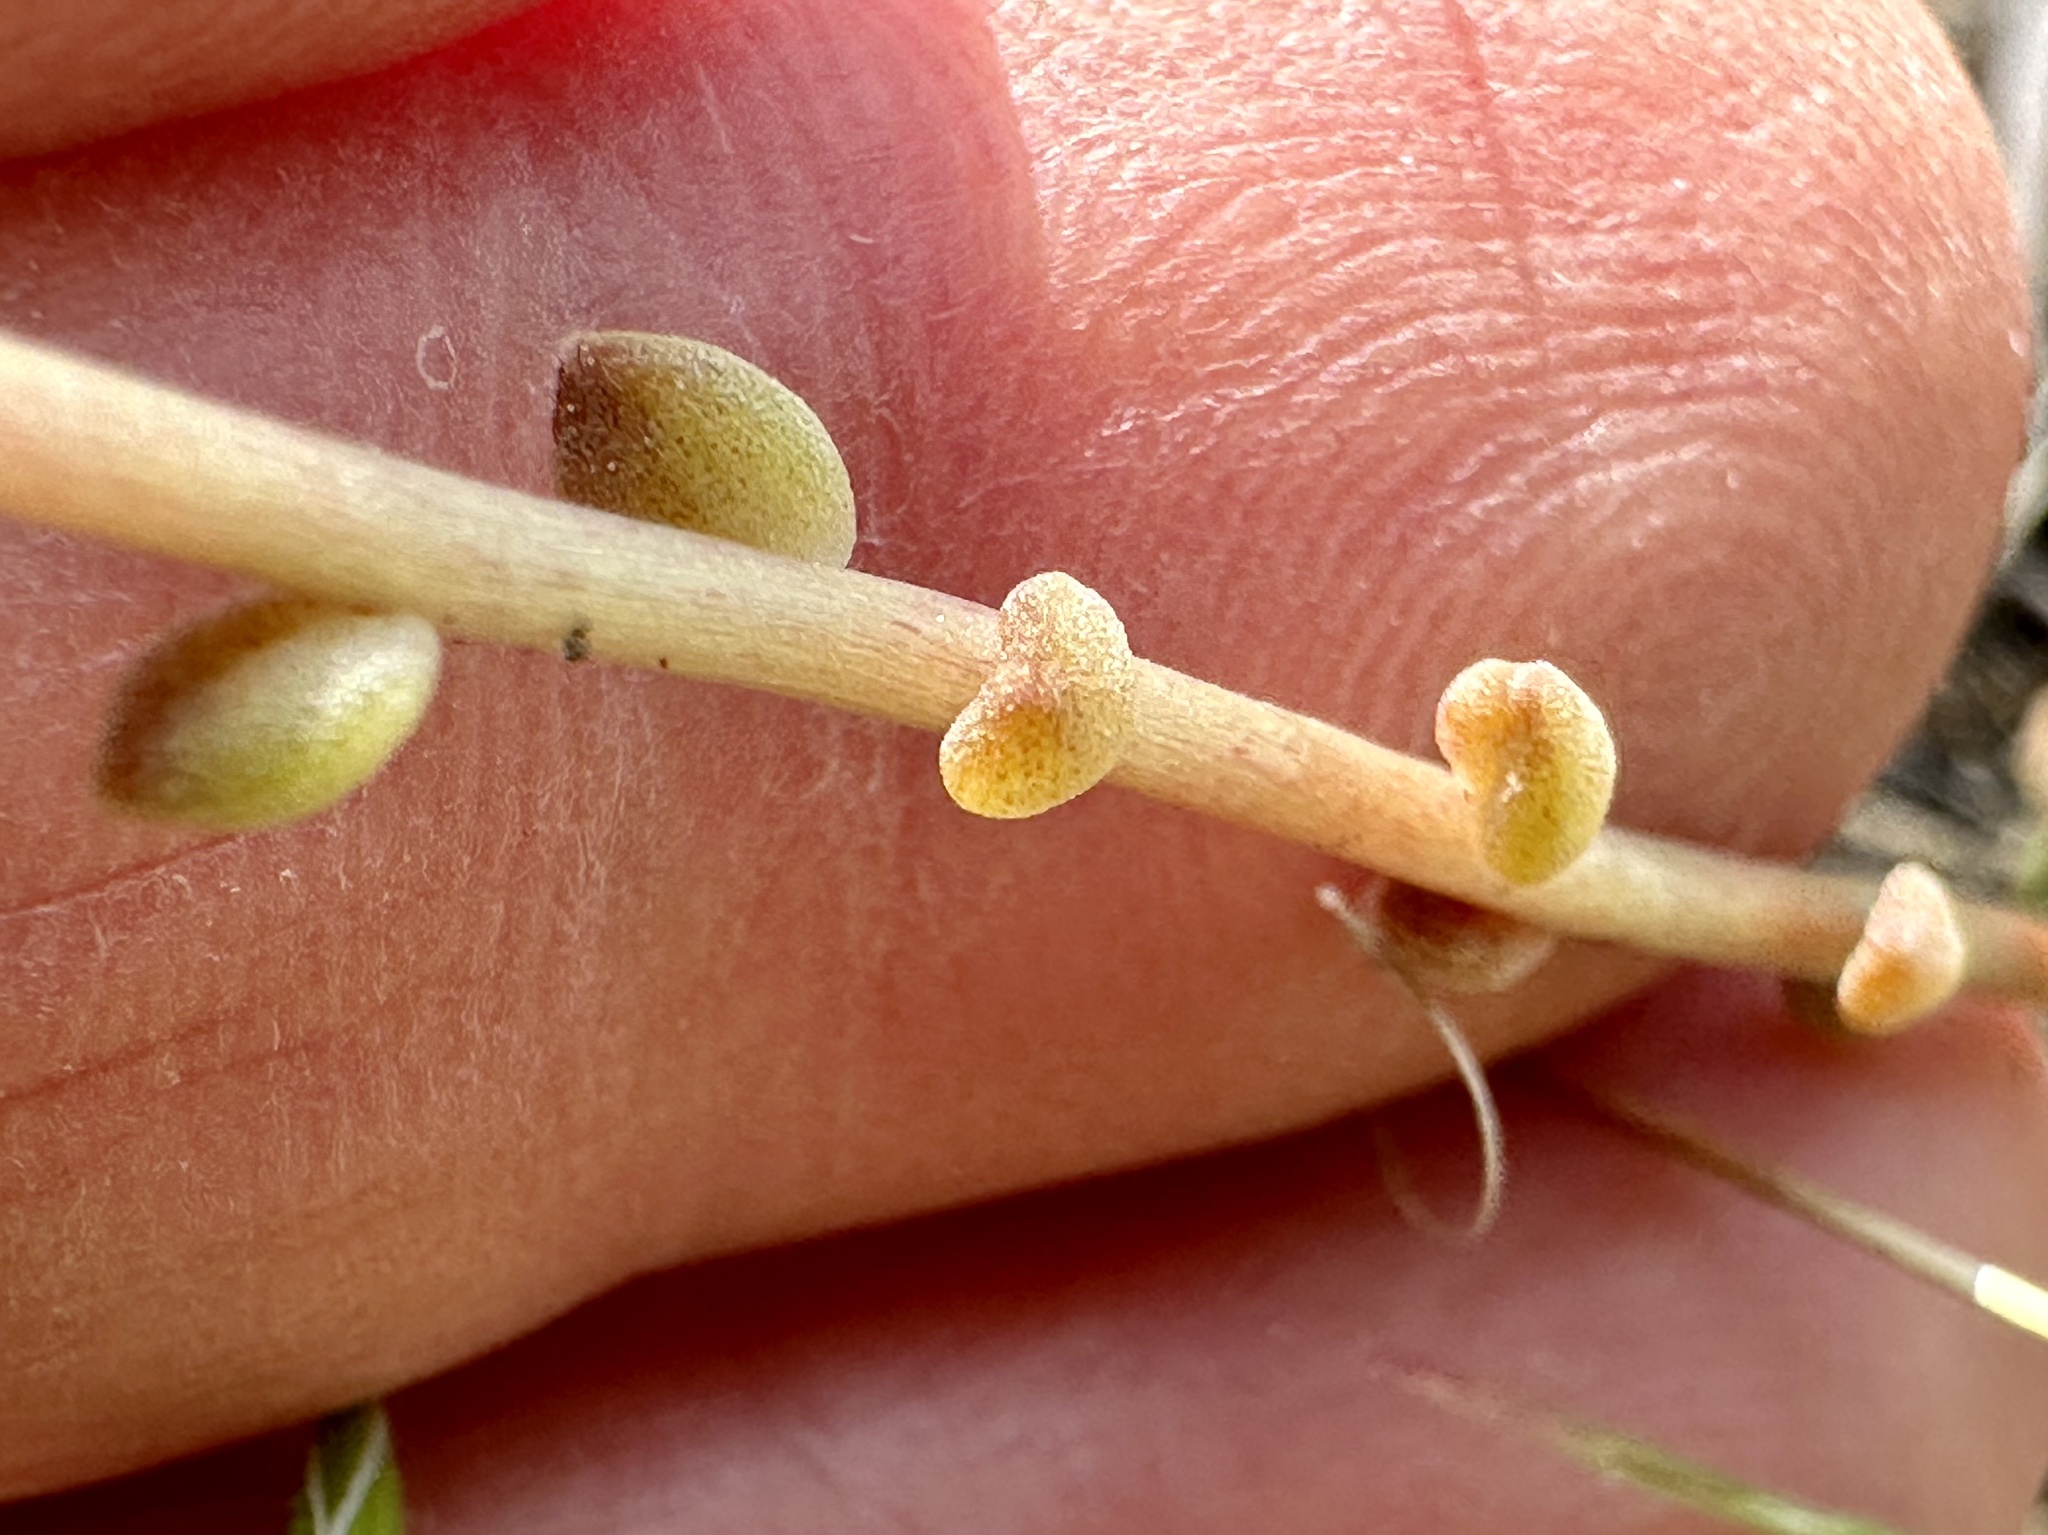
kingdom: Plantae
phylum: Tracheophyta
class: Magnoliopsida
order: Saxifragales
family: Crassulaceae
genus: Sedum
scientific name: Sedum leibergii
